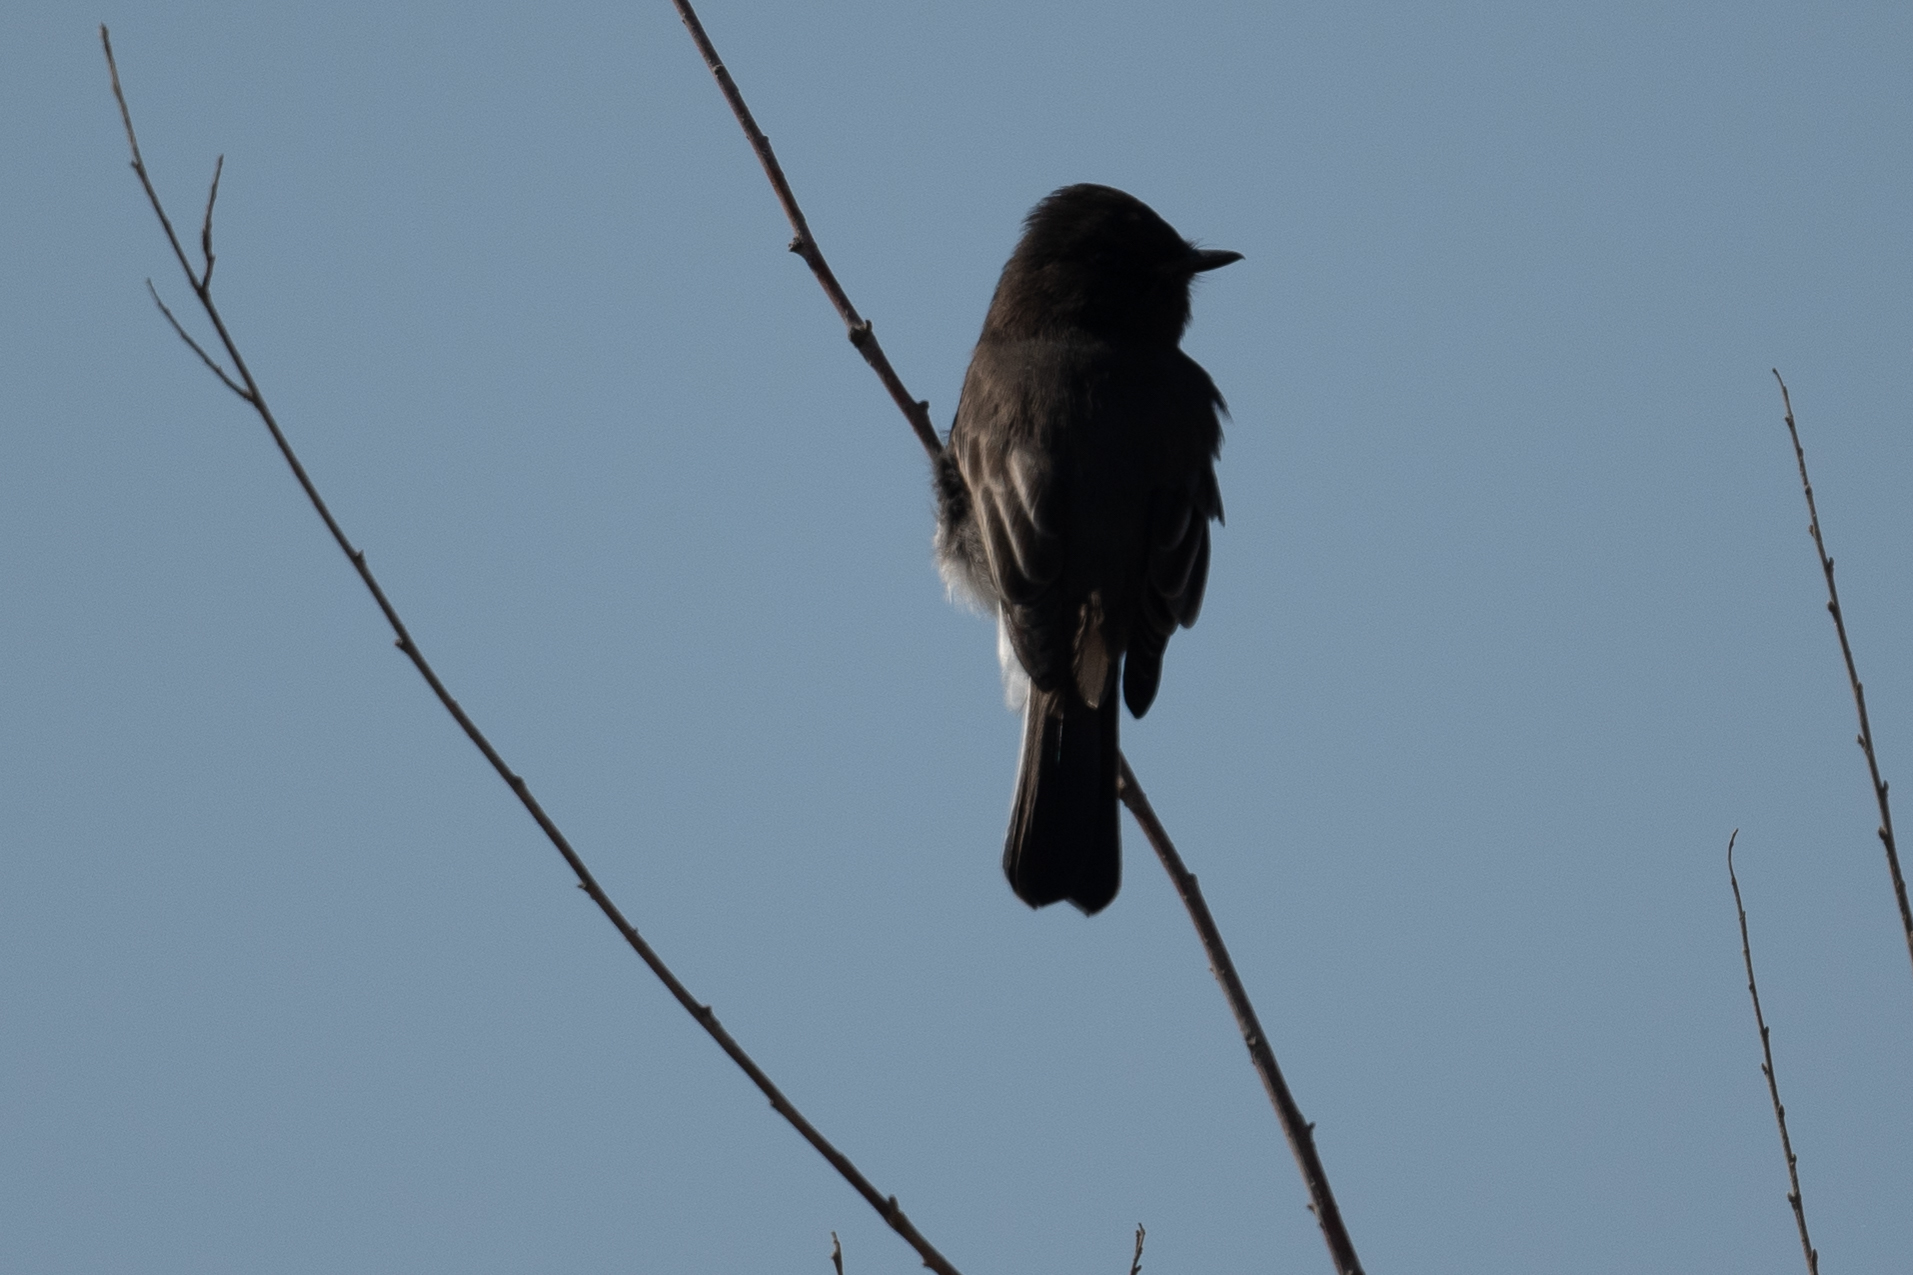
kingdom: Animalia
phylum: Chordata
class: Aves
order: Passeriformes
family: Tyrannidae
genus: Sayornis
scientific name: Sayornis nigricans
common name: Black phoebe
